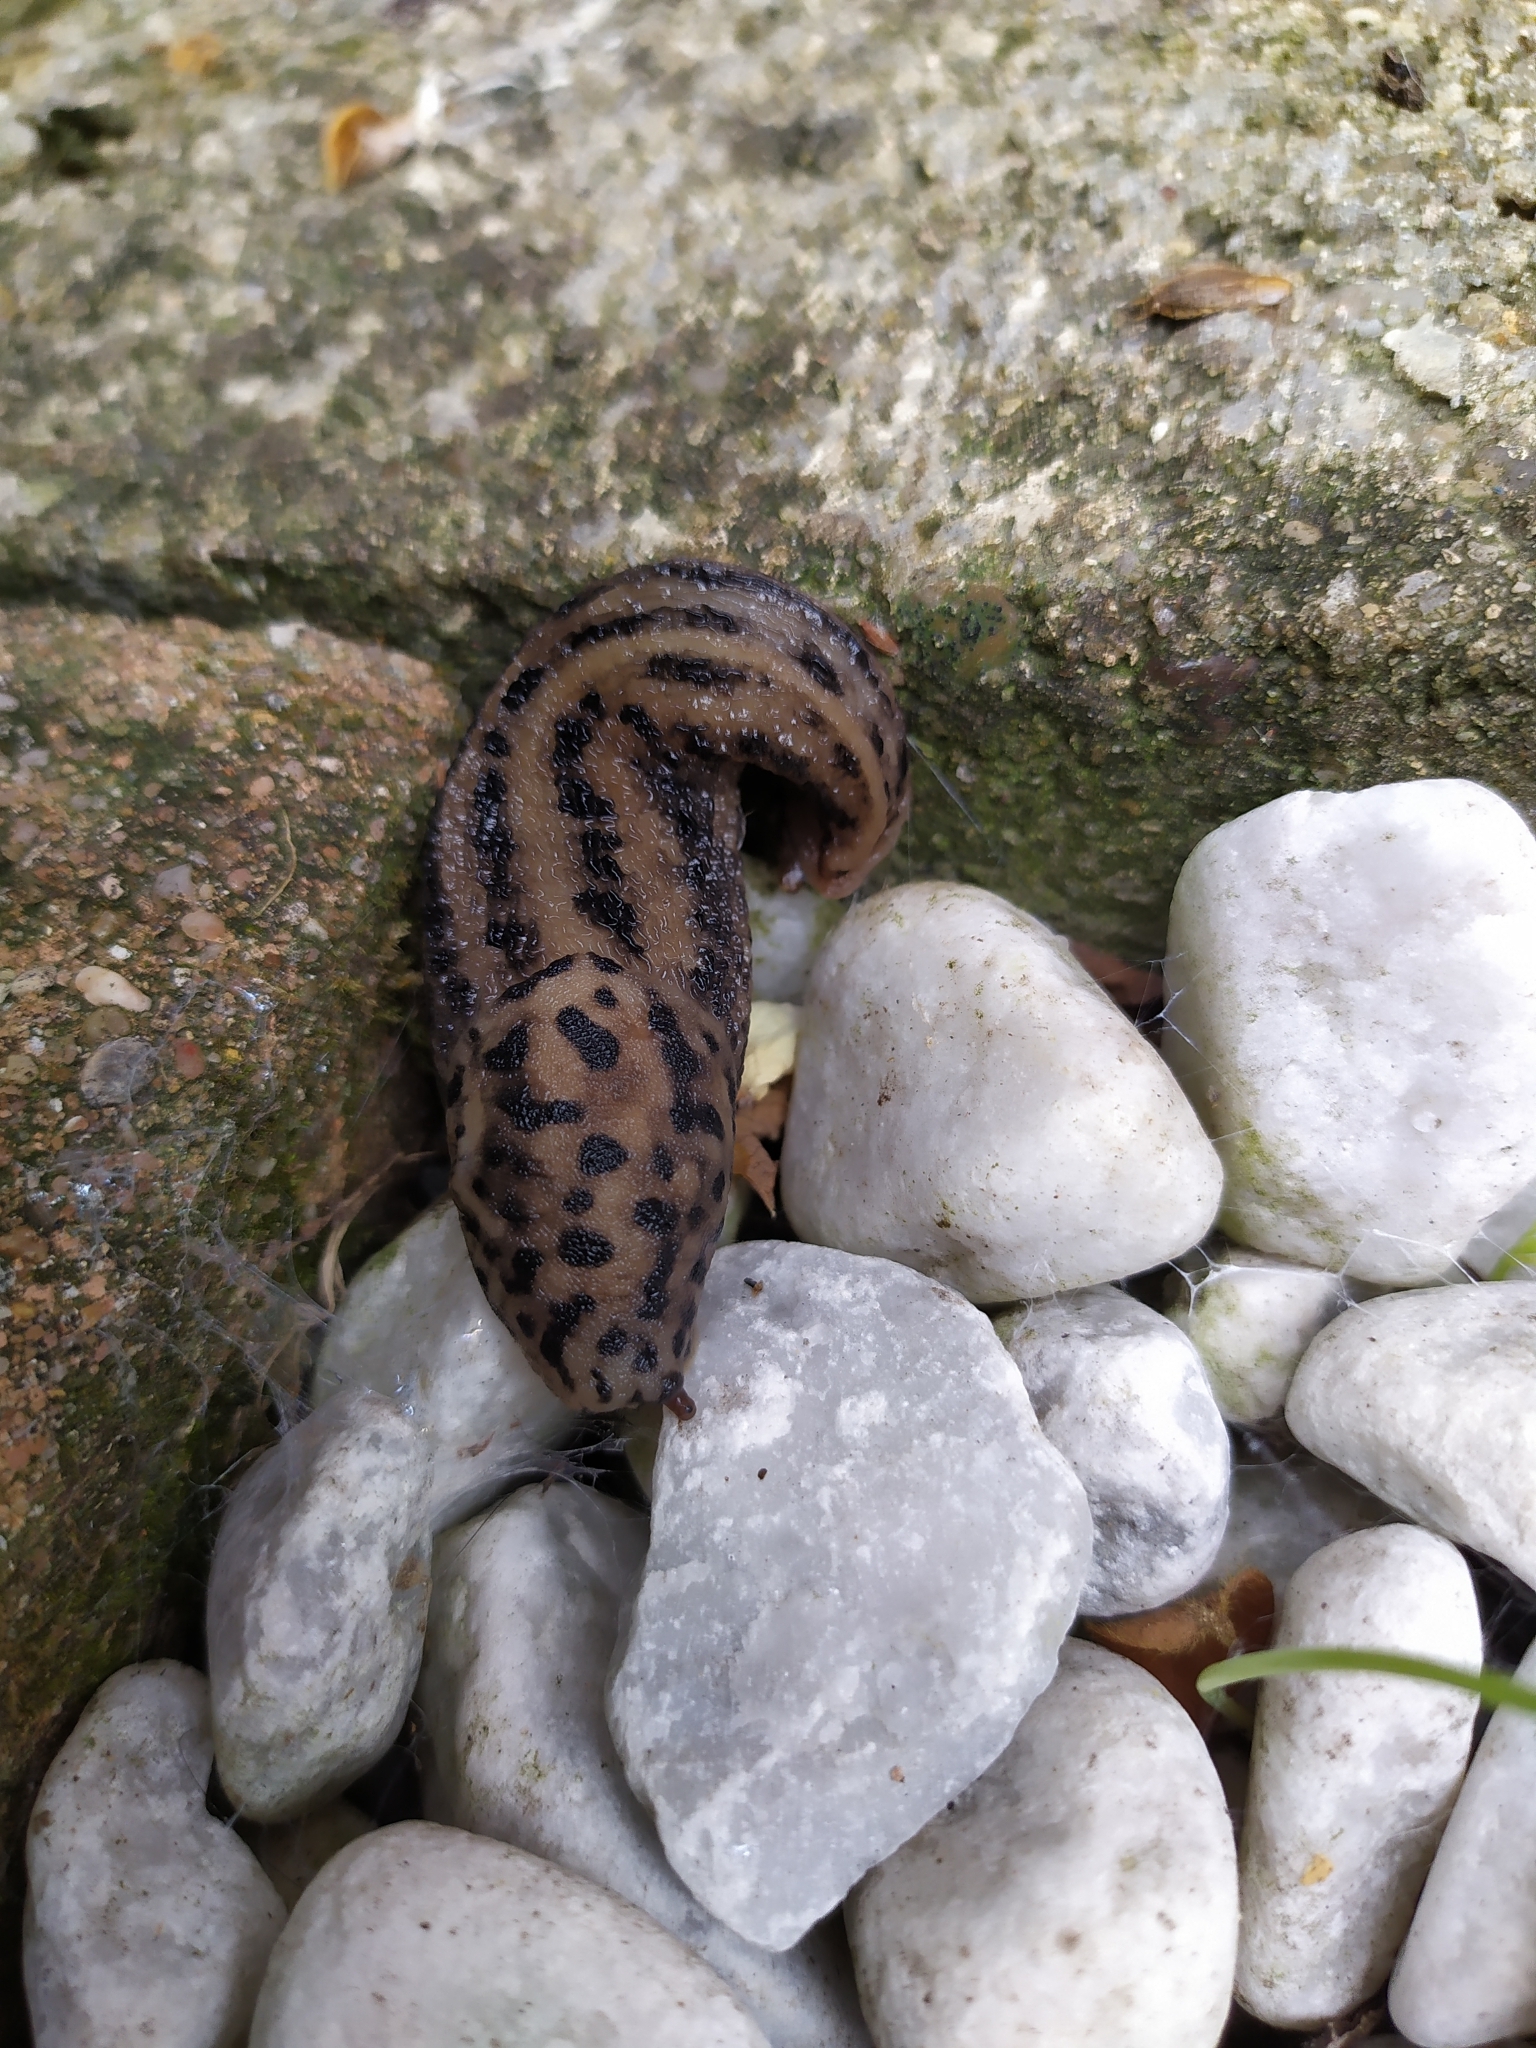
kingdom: Animalia
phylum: Mollusca
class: Gastropoda
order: Stylommatophora
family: Limacidae
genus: Limax
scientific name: Limax maximus
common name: Great grey slug
